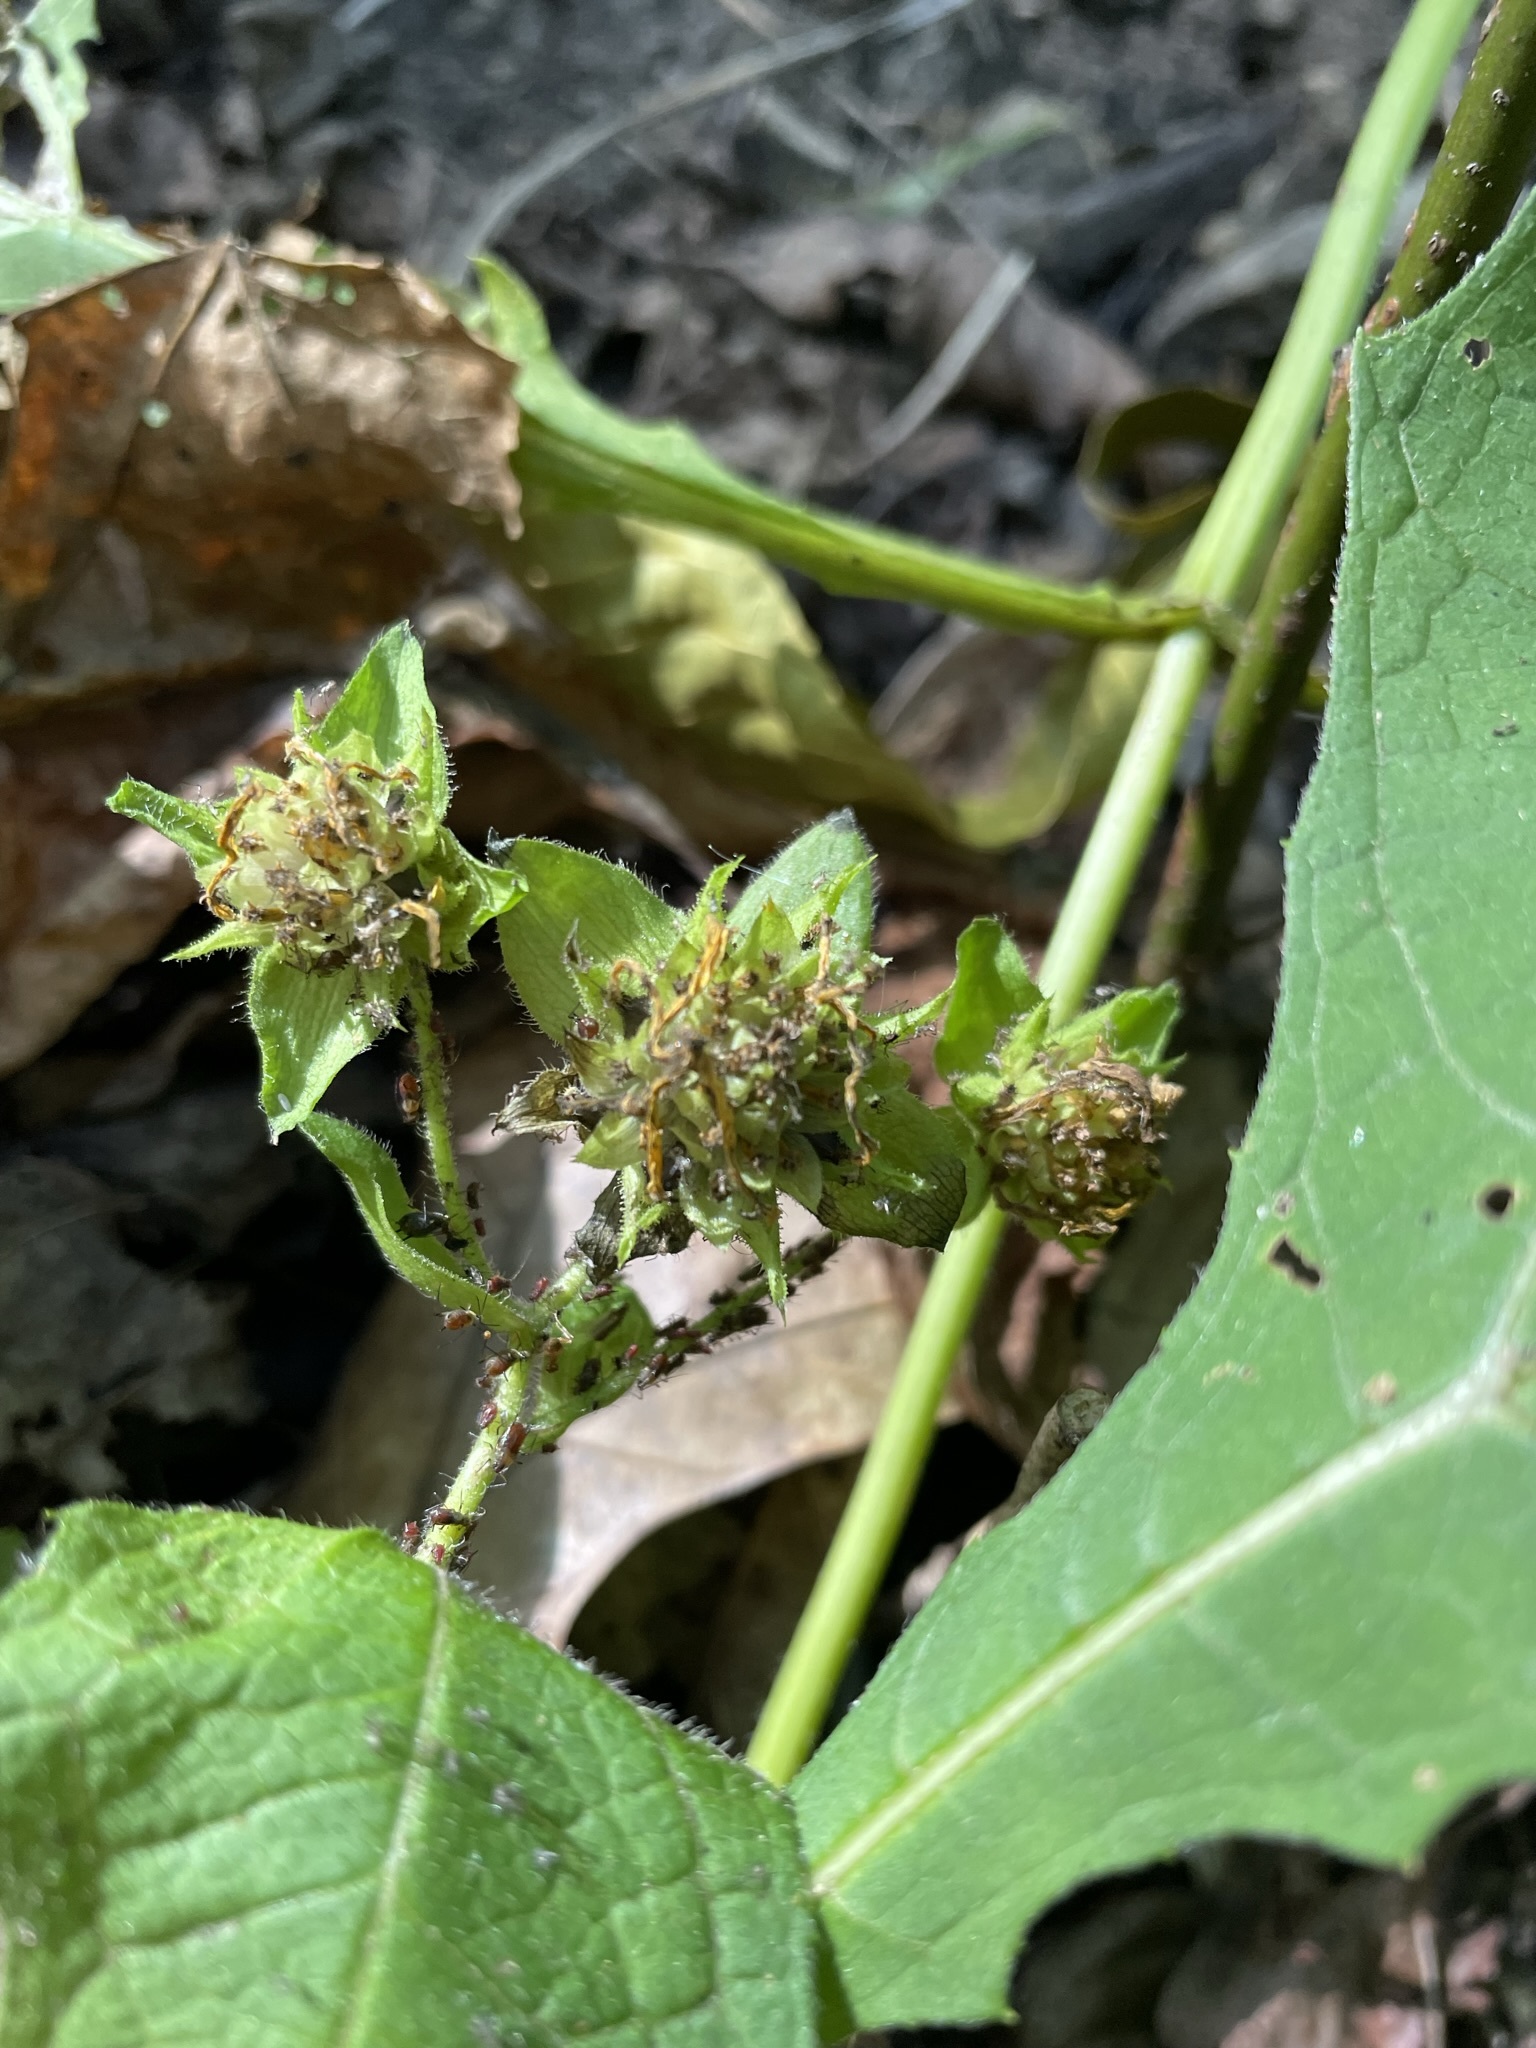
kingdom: Plantae
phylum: Tracheophyta
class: Magnoliopsida
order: Asterales
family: Asteraceae
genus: Smallanthus
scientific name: Smallanthus uvedalia
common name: Bear's-foot
